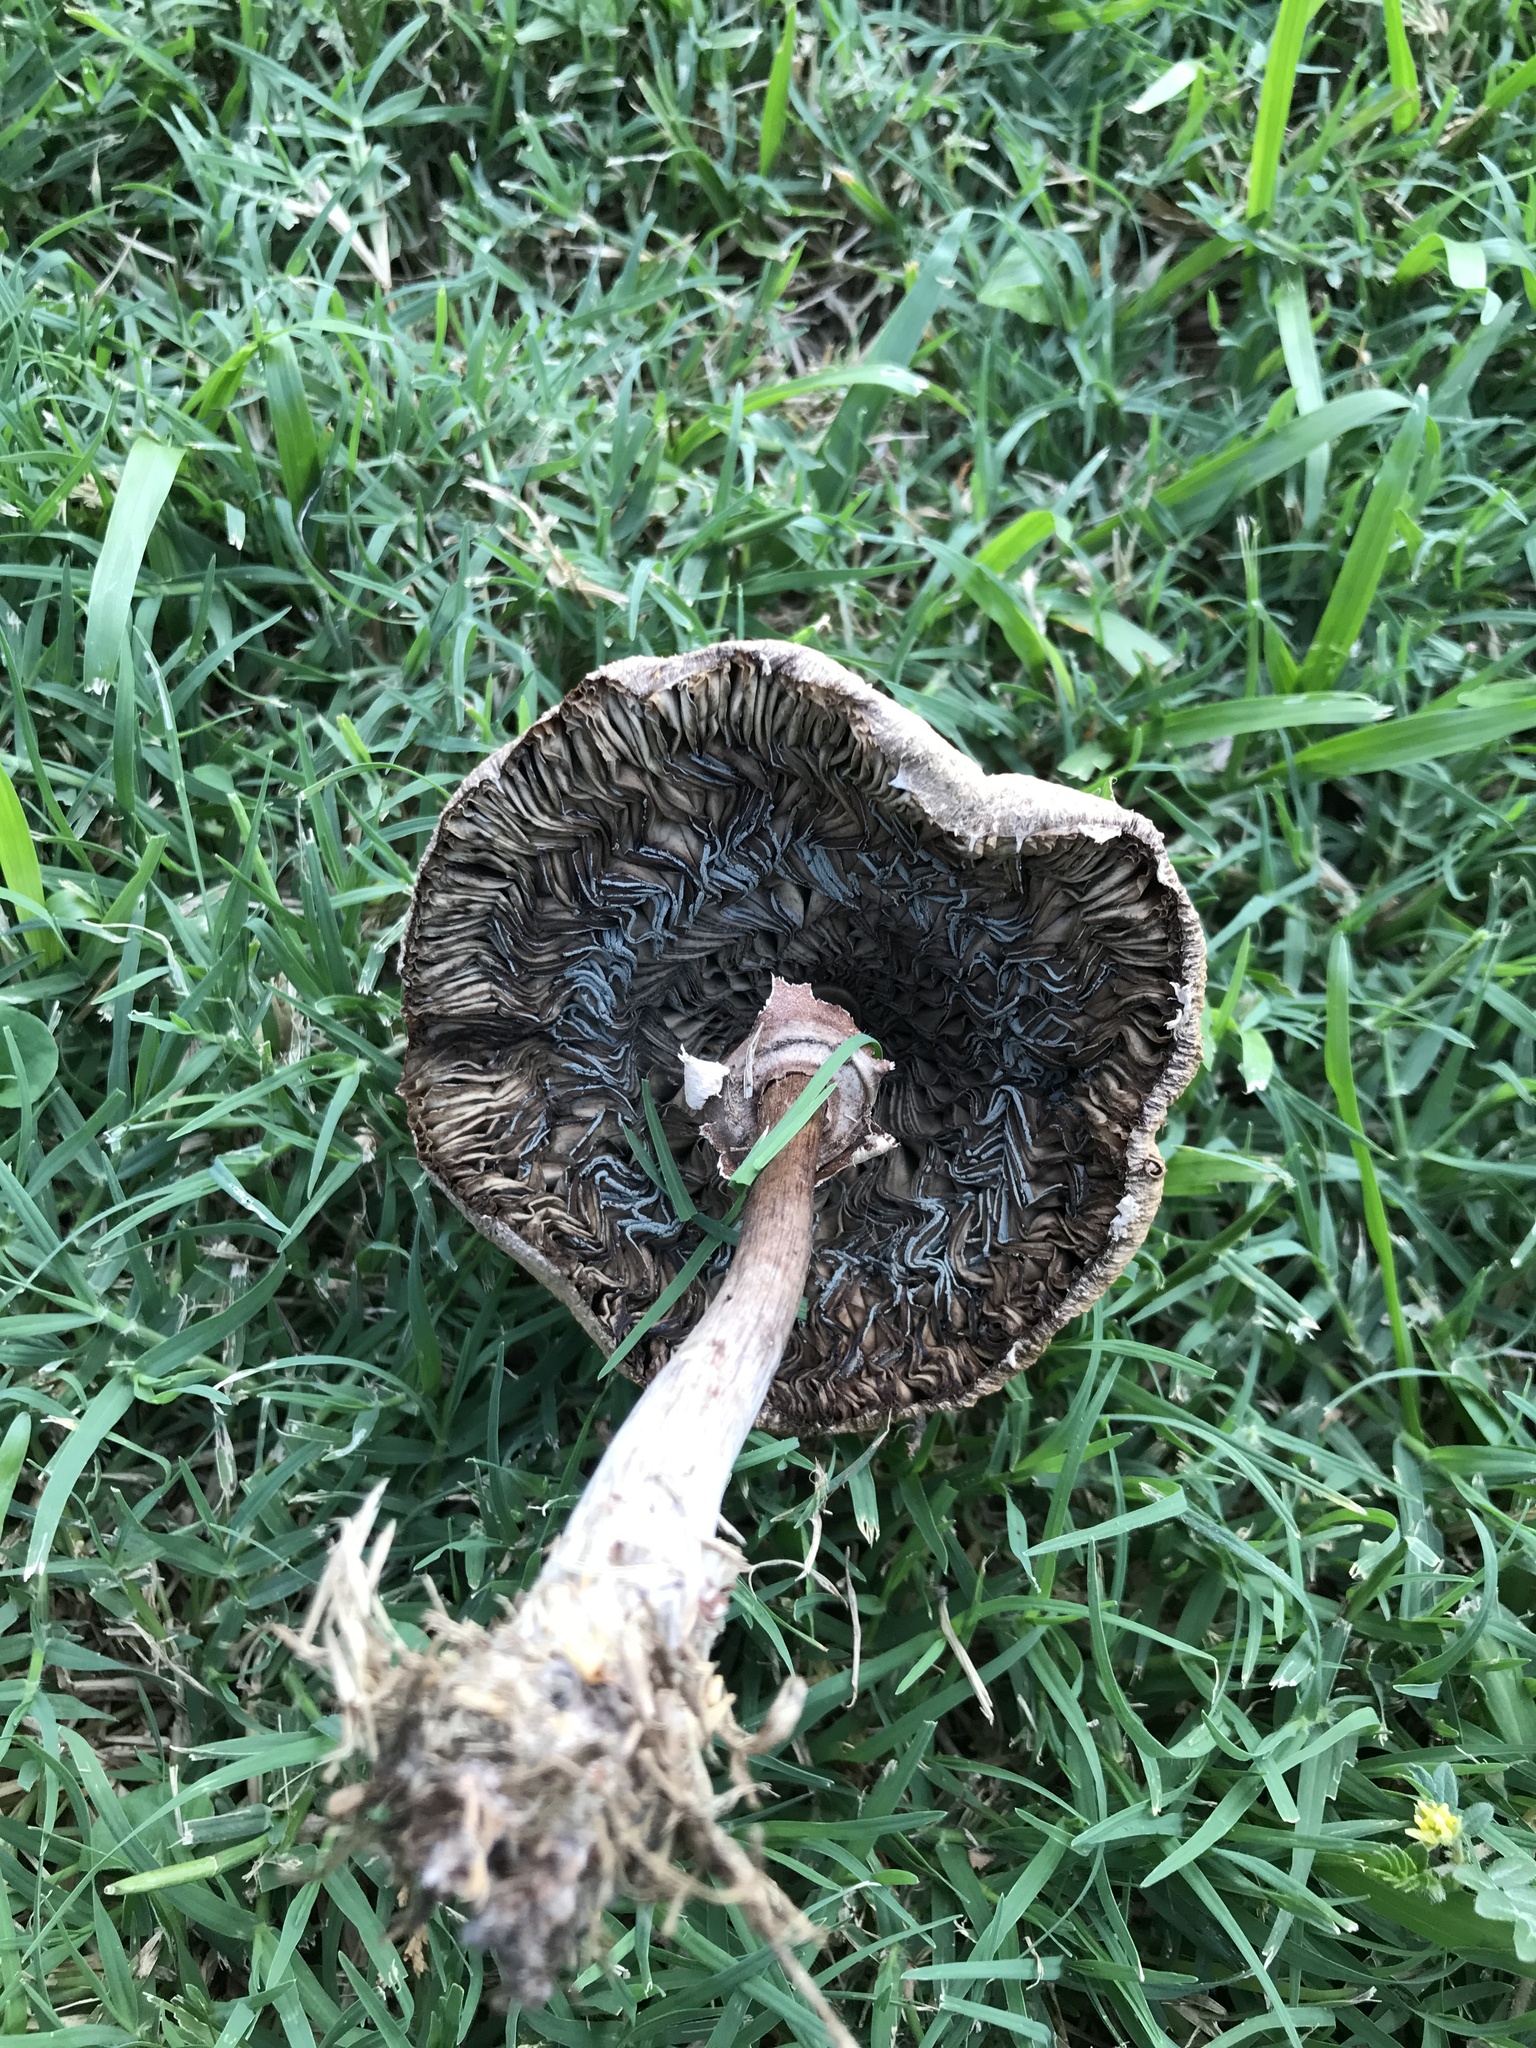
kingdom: Fungi
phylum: Basidiomycota
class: Agaricomycetes
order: Agaricales
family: Agaricaceae
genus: Chlorophyllum
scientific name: Chlorophyllum molybdites
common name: False parasol
